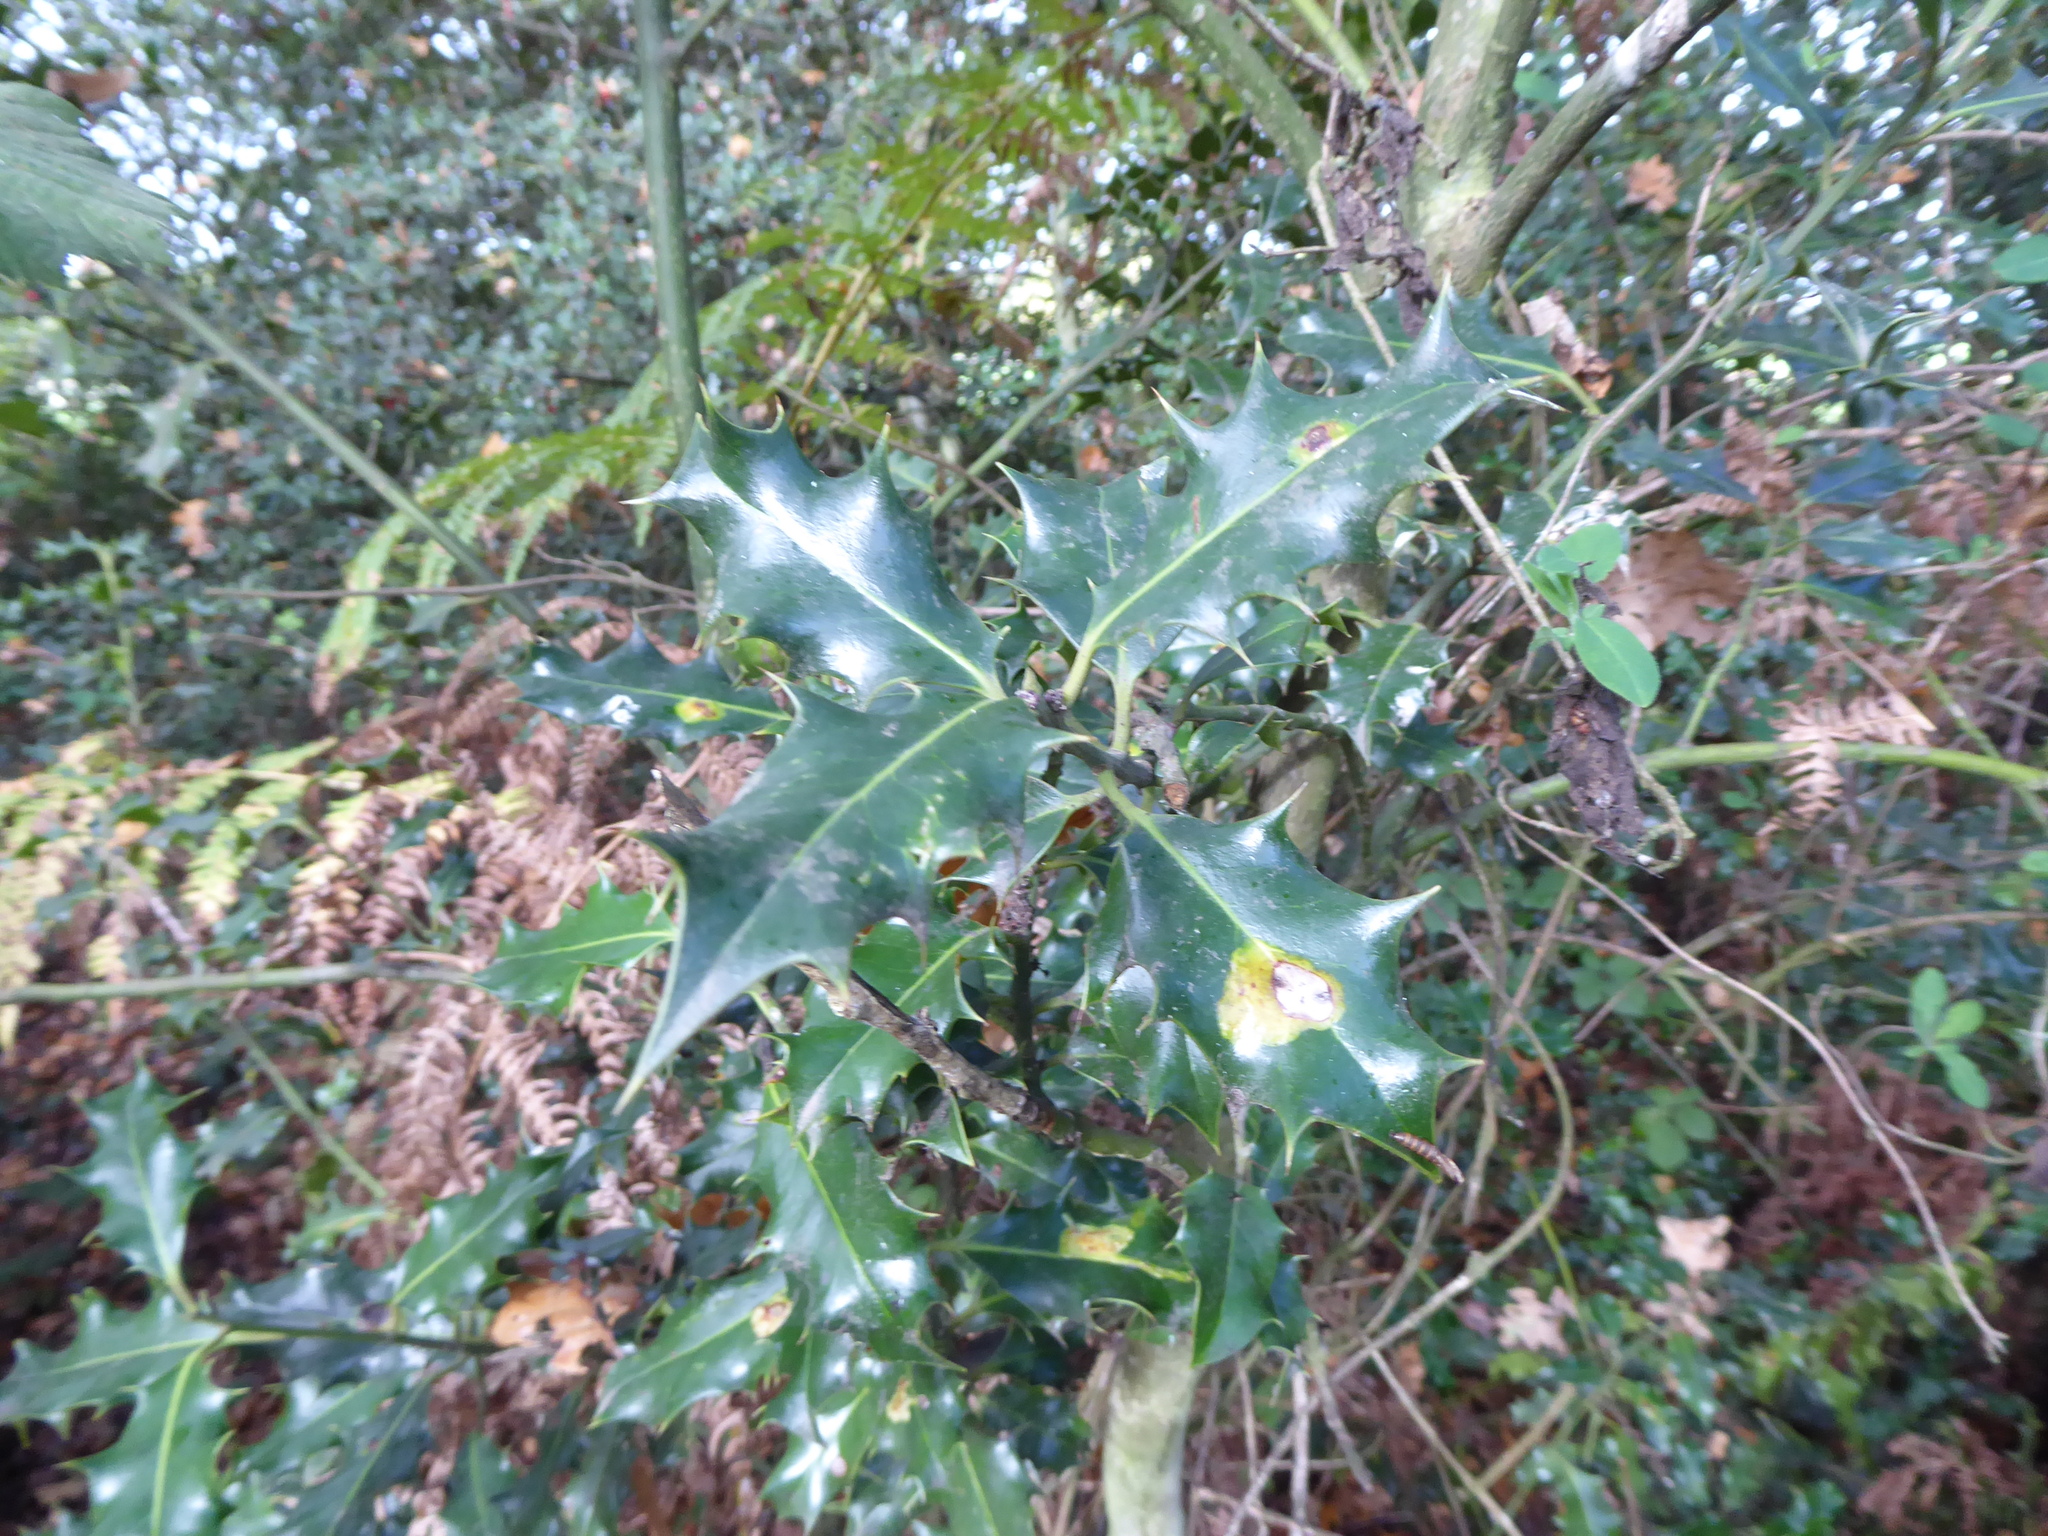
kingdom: Plantae
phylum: Tracheophyta
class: Magnoliopsida
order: Aquifoliales
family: Aquifoliaceae
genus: Ilex
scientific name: Ilex aquifolium
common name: English holly
